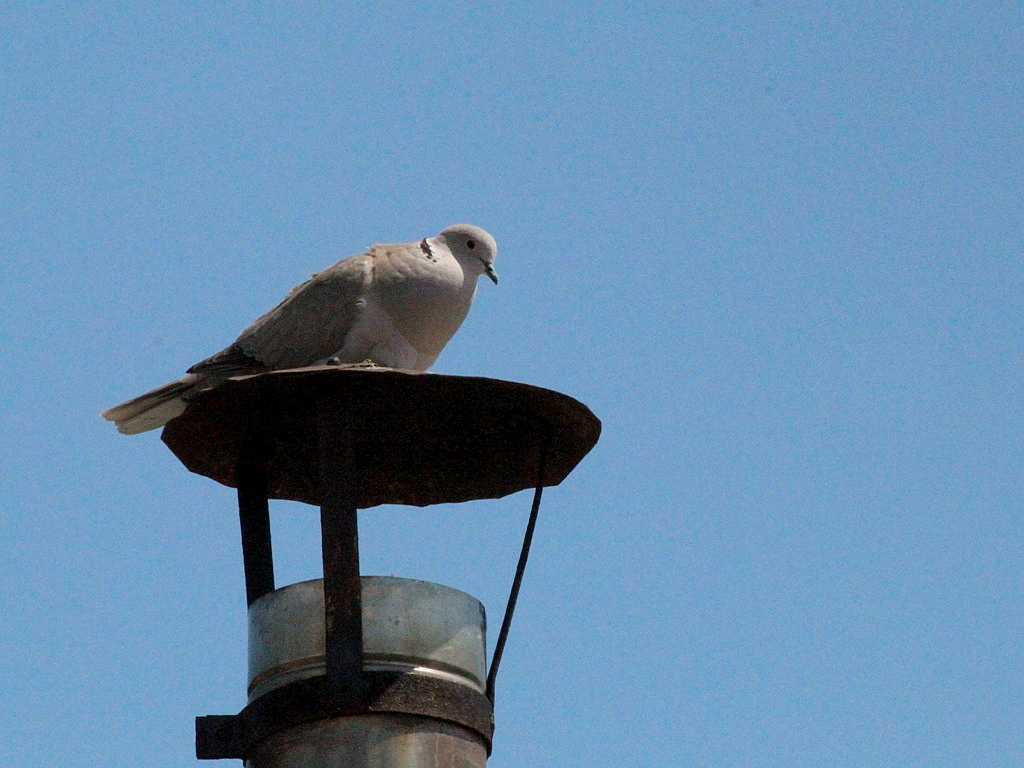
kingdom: Animalia
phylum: Chordata
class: Aves
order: Columbiformes
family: Columbidae
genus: Streptopelia
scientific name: Streptopelia decaocto
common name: Eurasian collared dove
